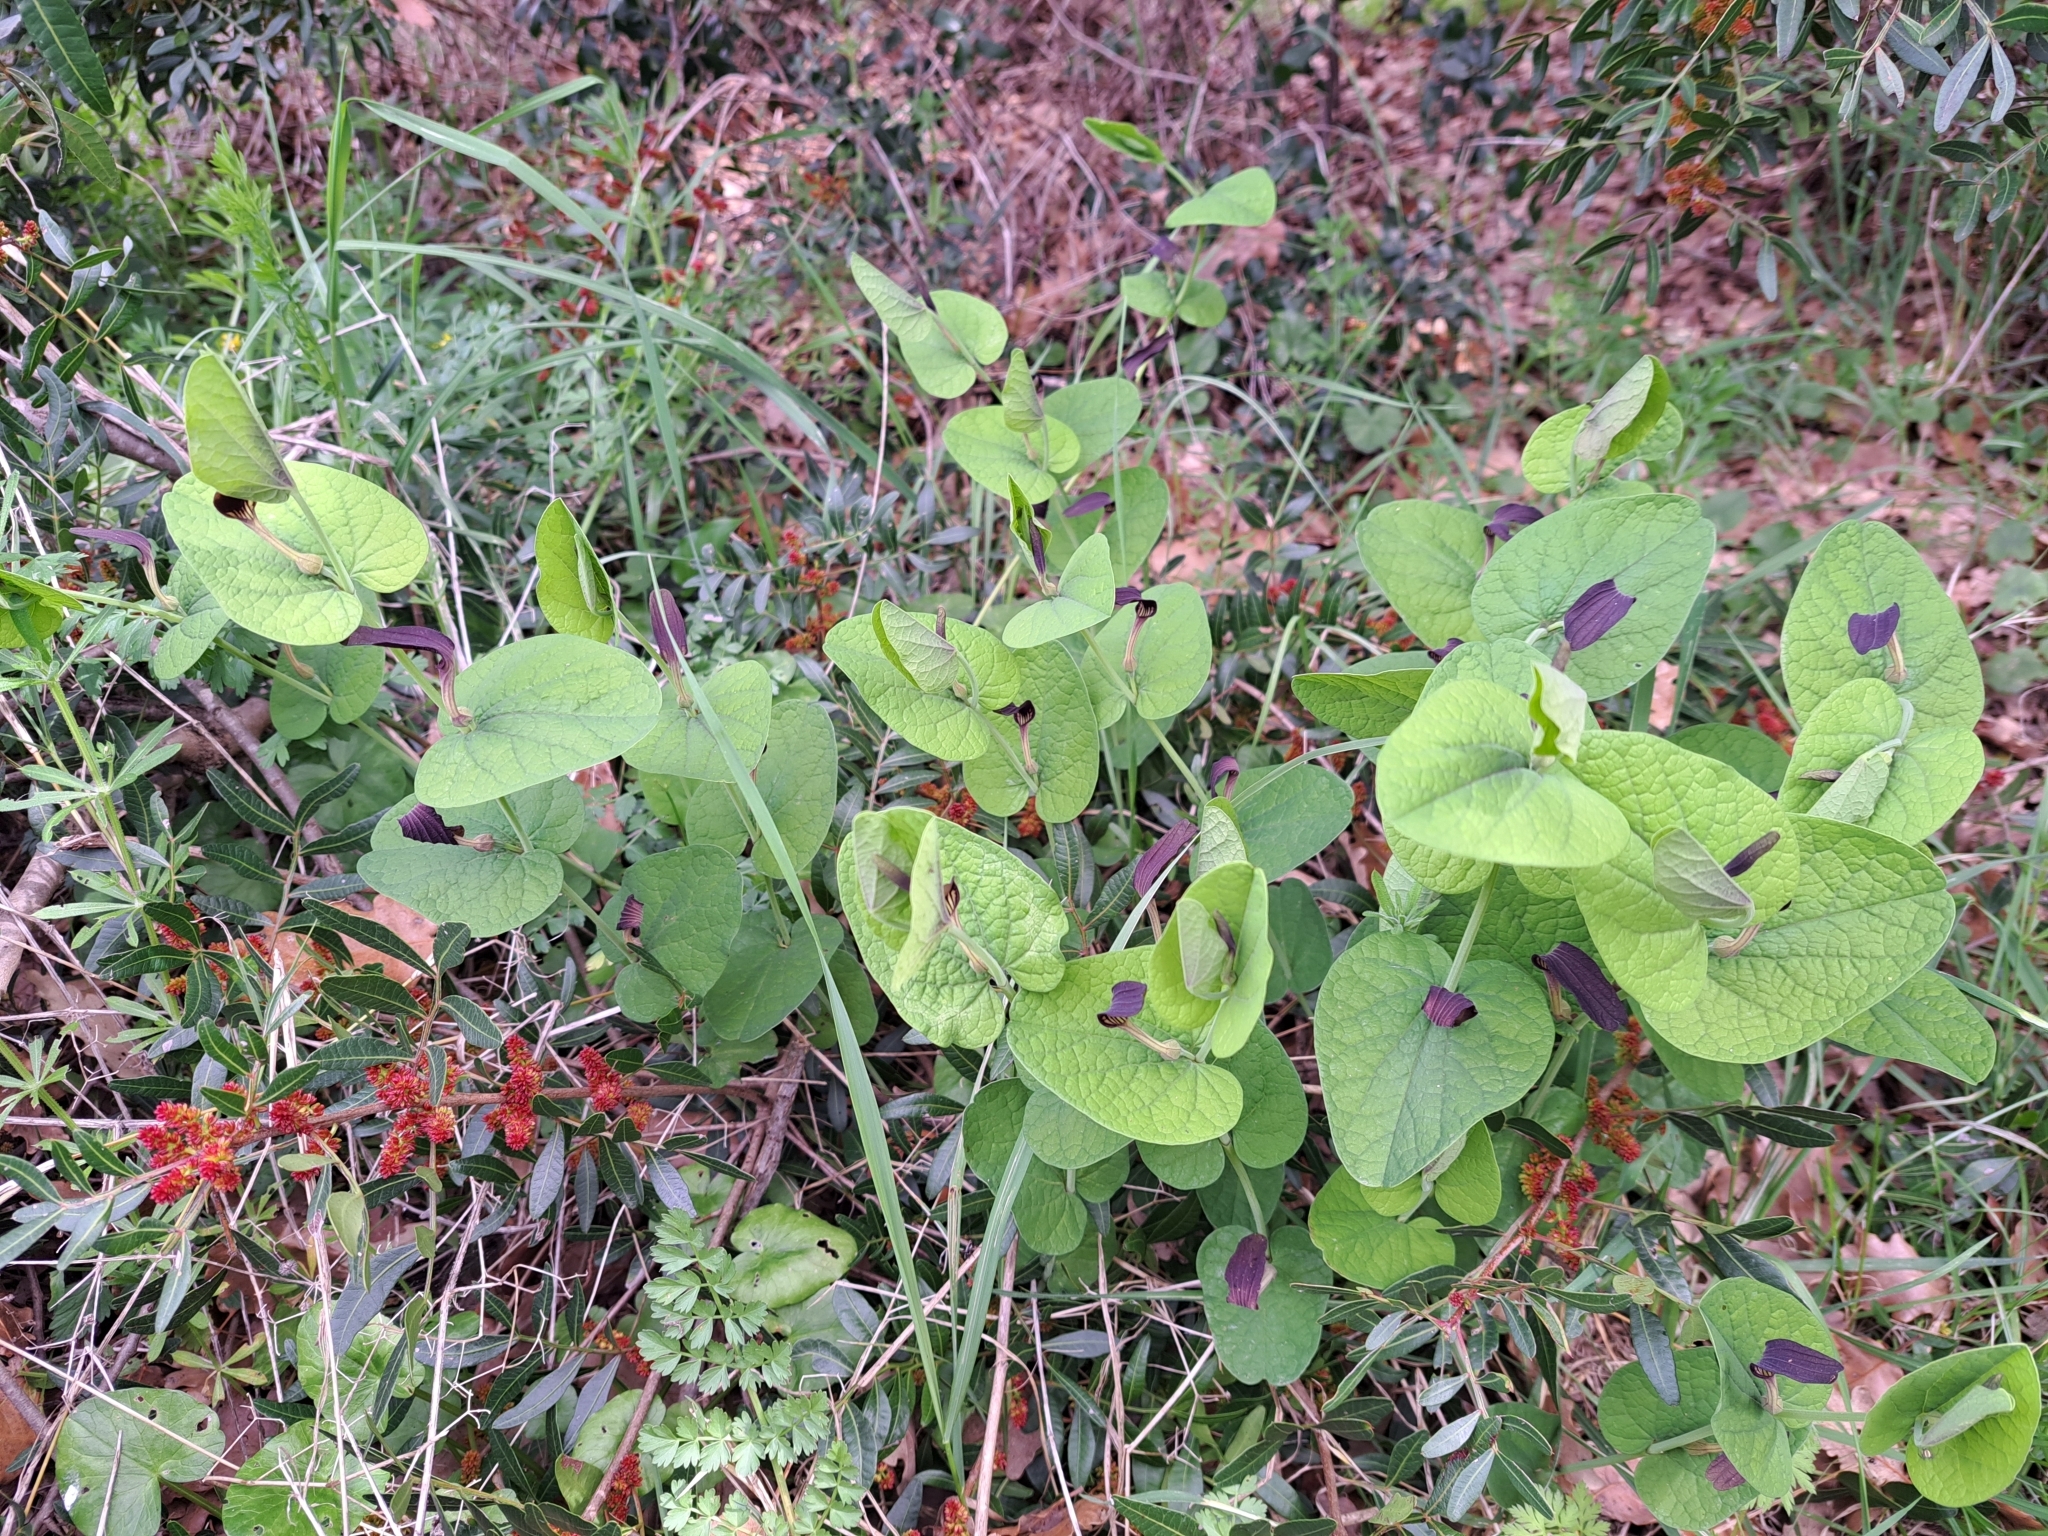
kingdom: Plantae
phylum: Tracheophyta
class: Magnoliopsida
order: Piperales
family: Aristolochiaceae
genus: Aristolochia
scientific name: Aristolochia rotunda
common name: Smearwort
